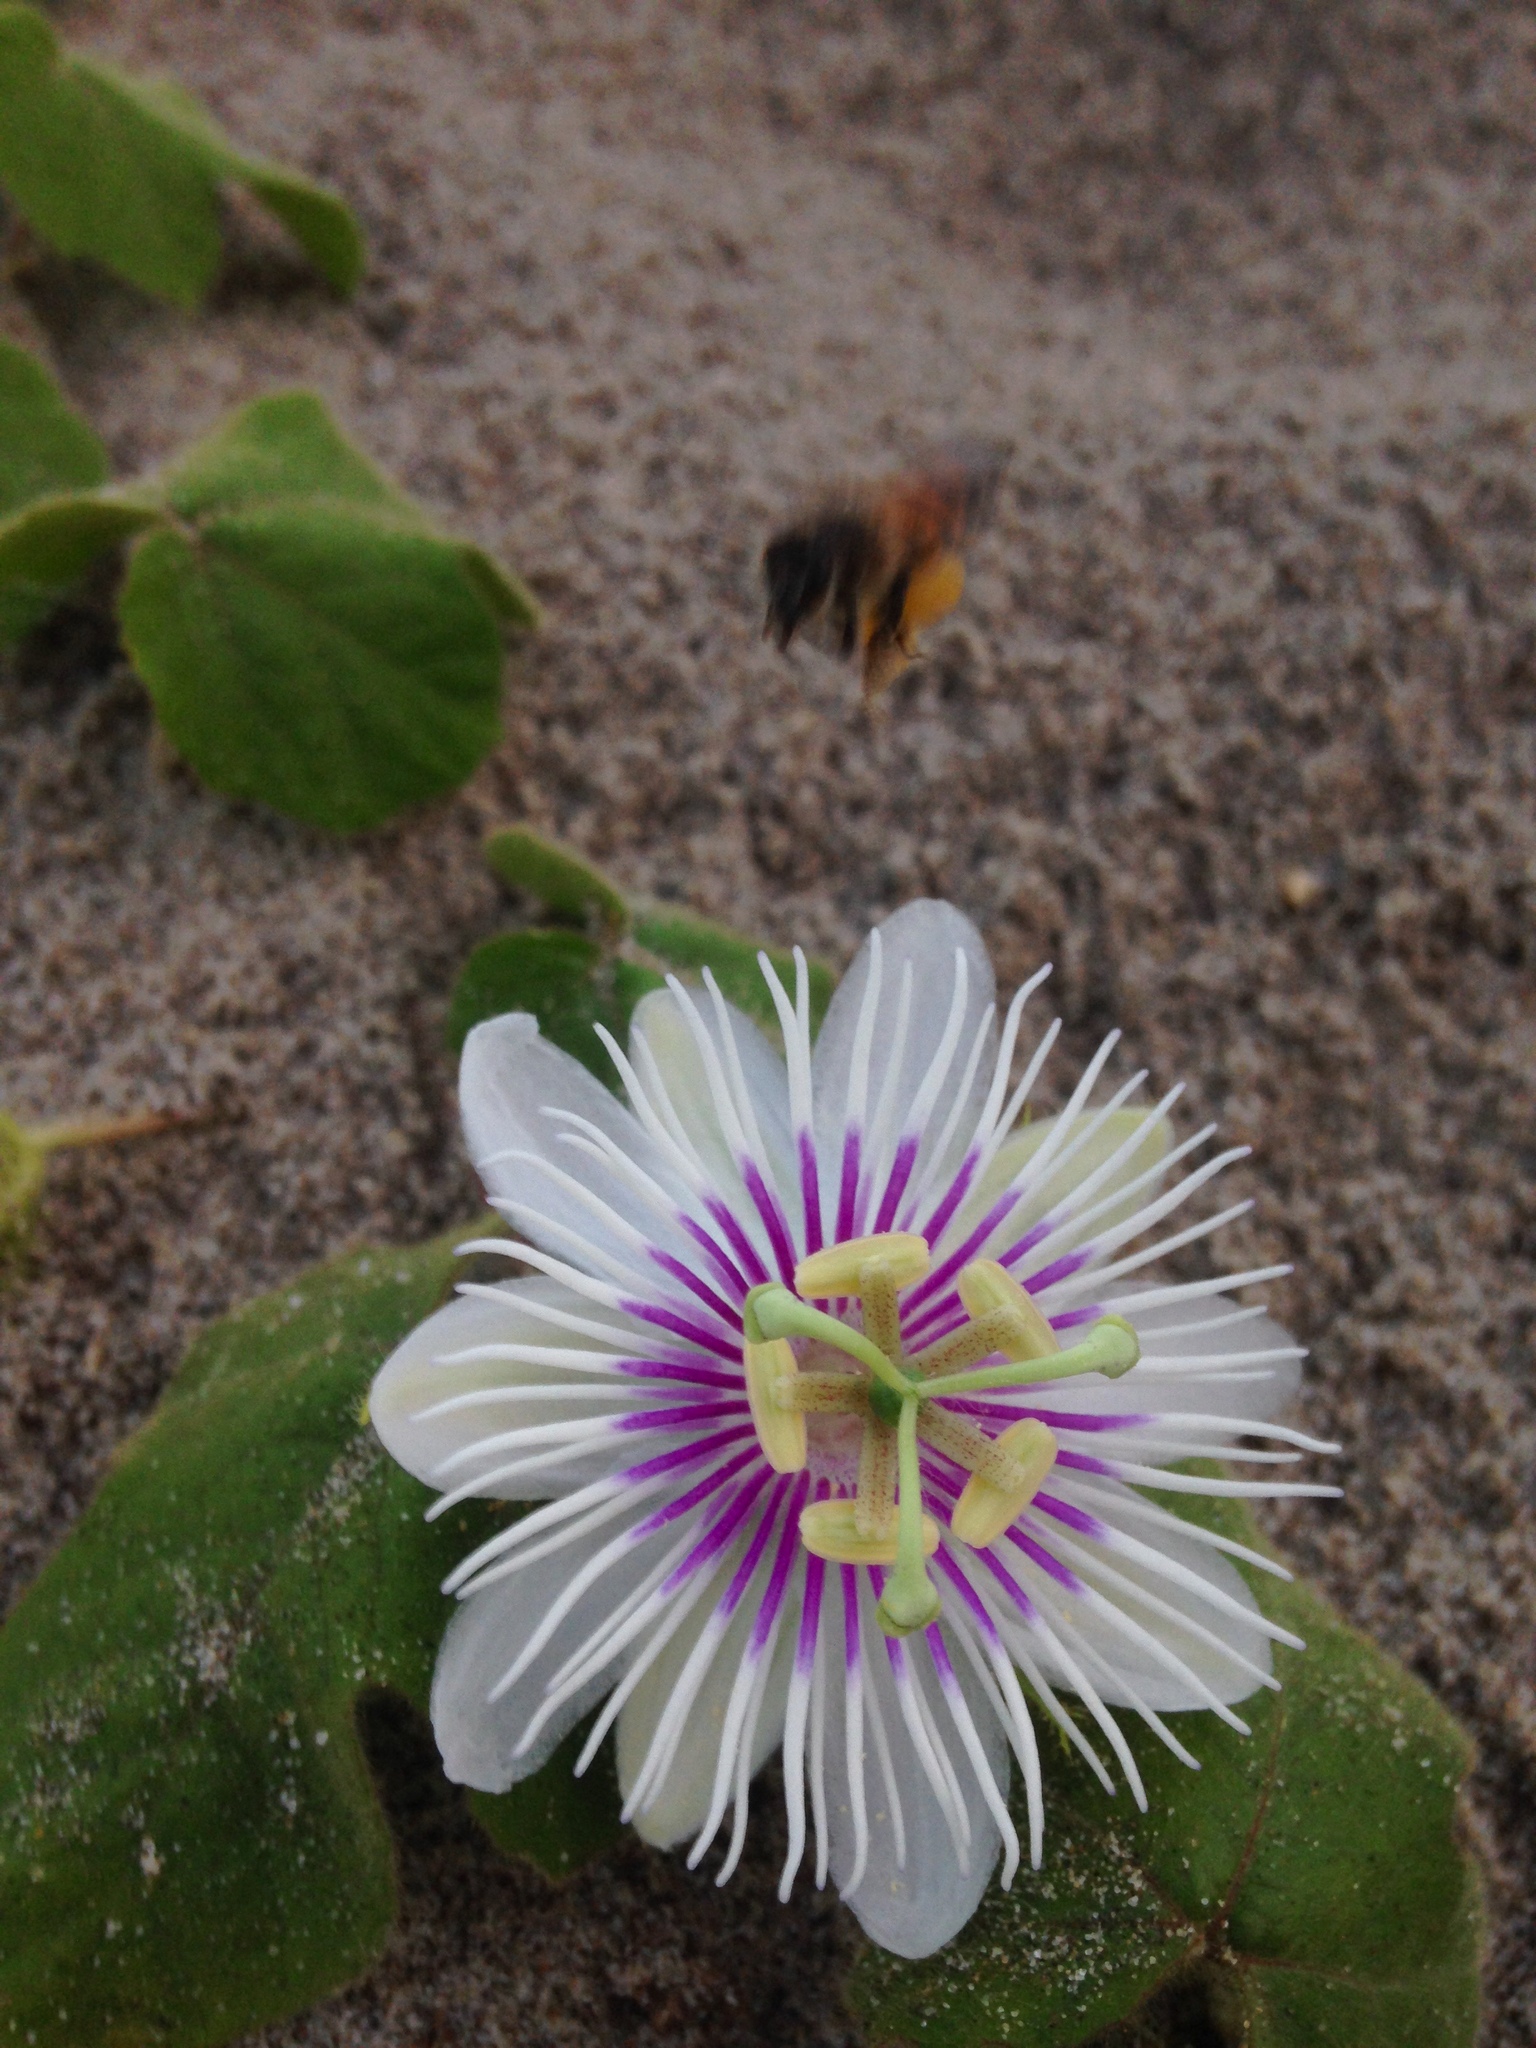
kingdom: Plantae
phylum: Tracheophyta
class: Magnoliopsida
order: Malpighiales
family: Passifloraceae
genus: Passiflora
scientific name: Passiflora foetida
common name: Fetid passionflower
